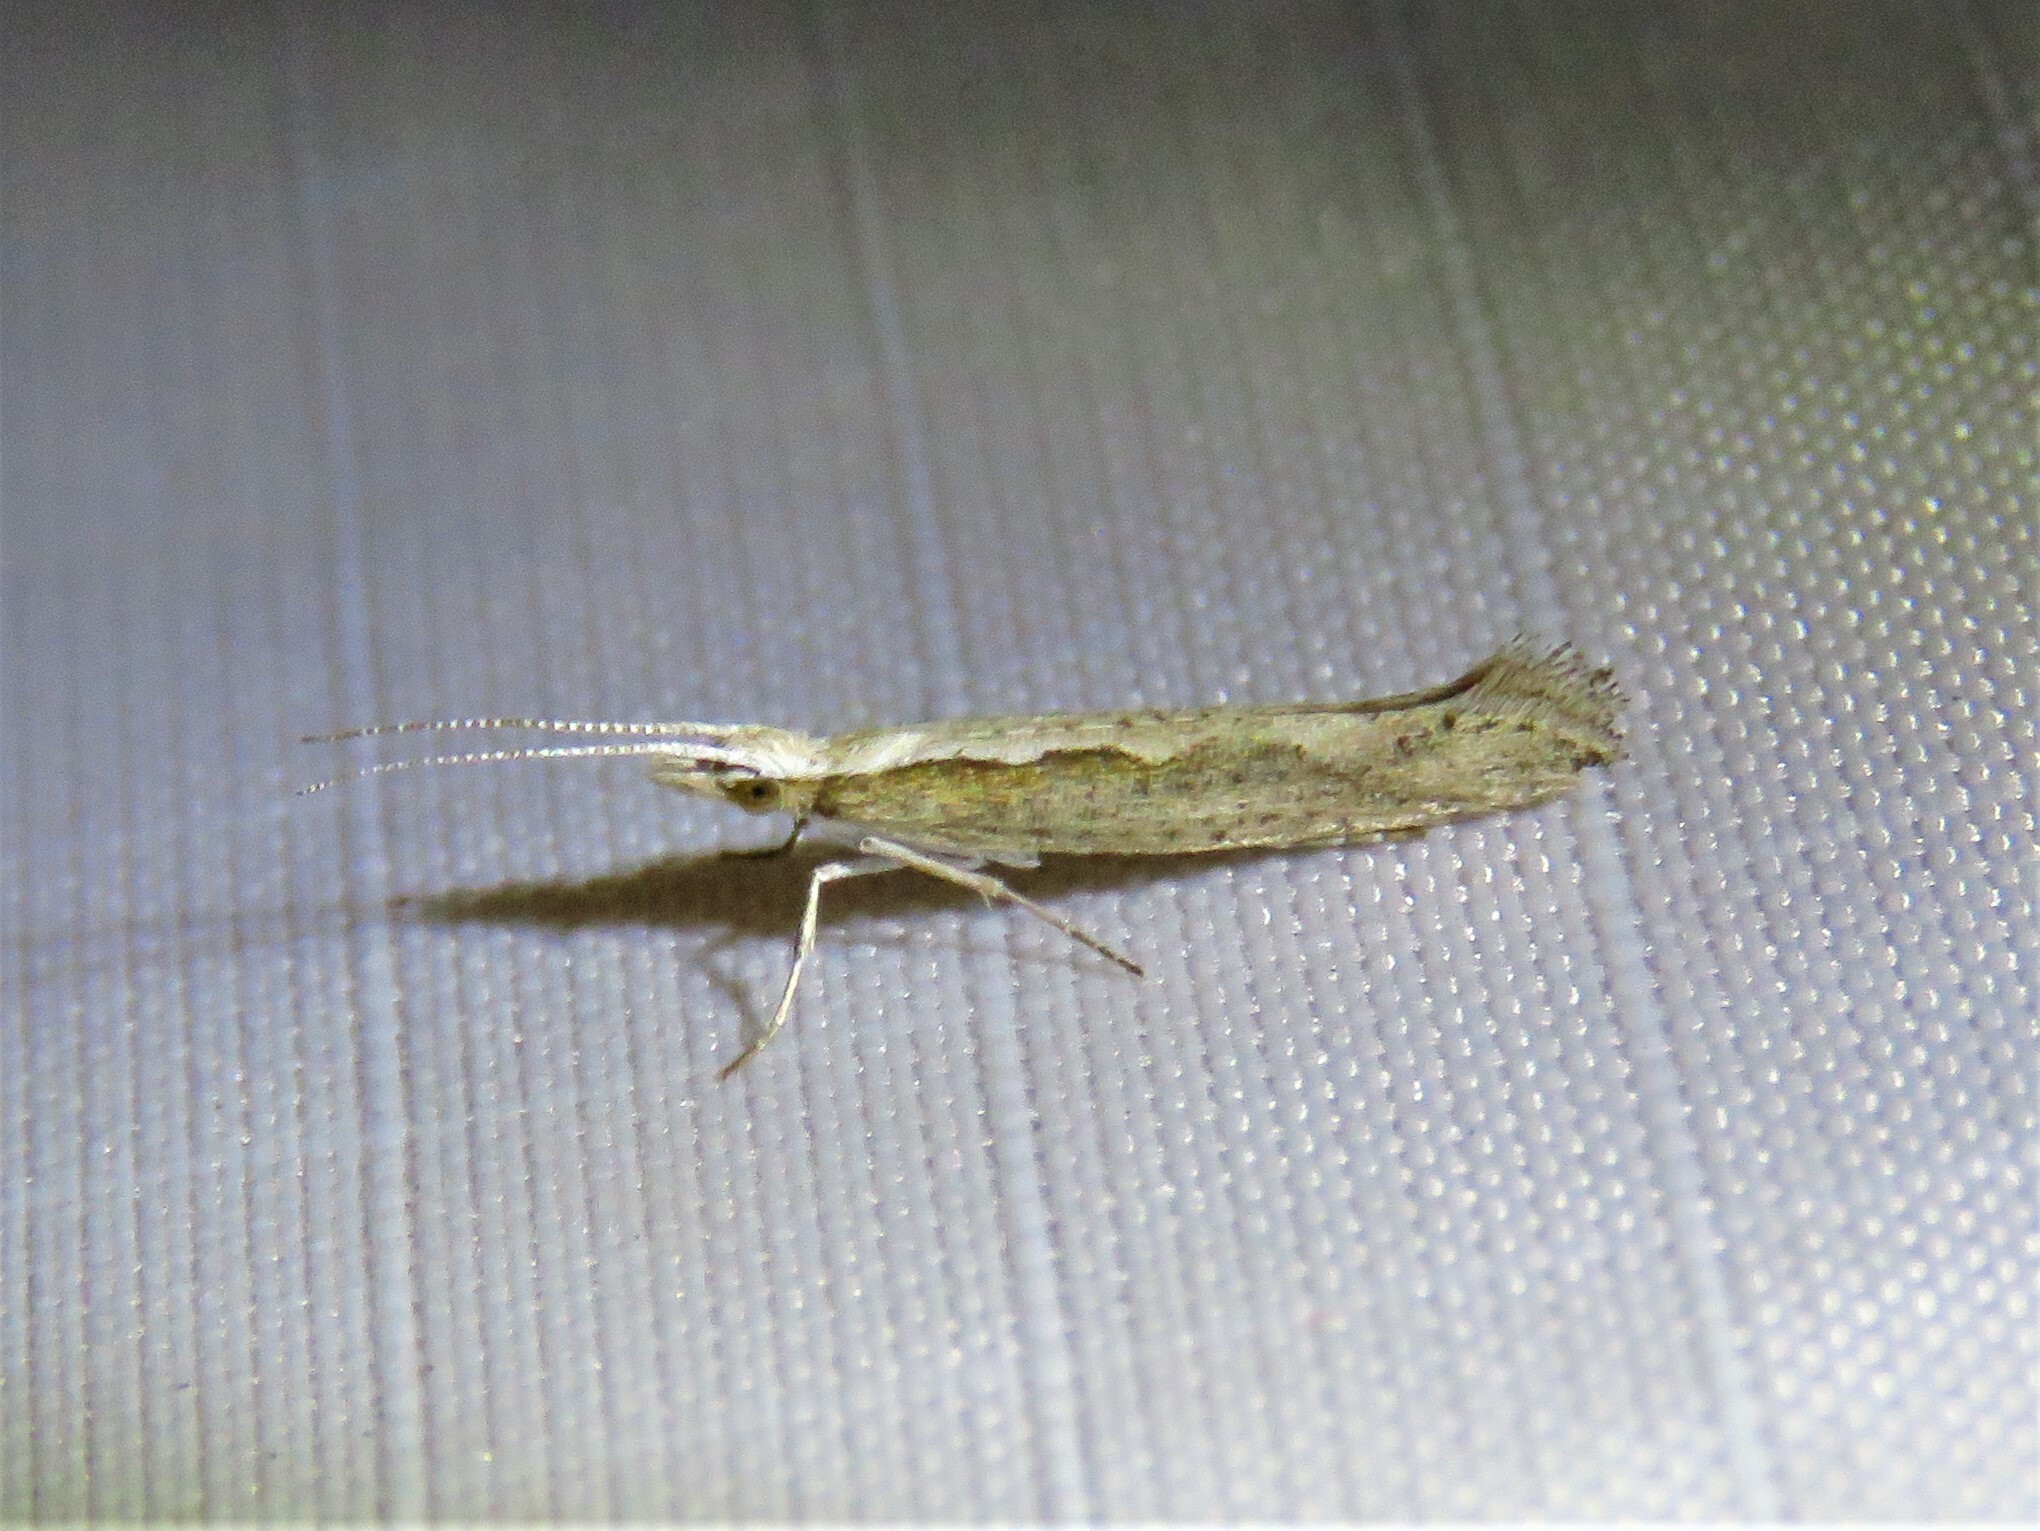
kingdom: Animalia
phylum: Arthropoda
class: Insecta
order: Lepidoptera
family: Plutellidae
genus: Plutella
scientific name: Plutella xylostella
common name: Diamond-back moth
